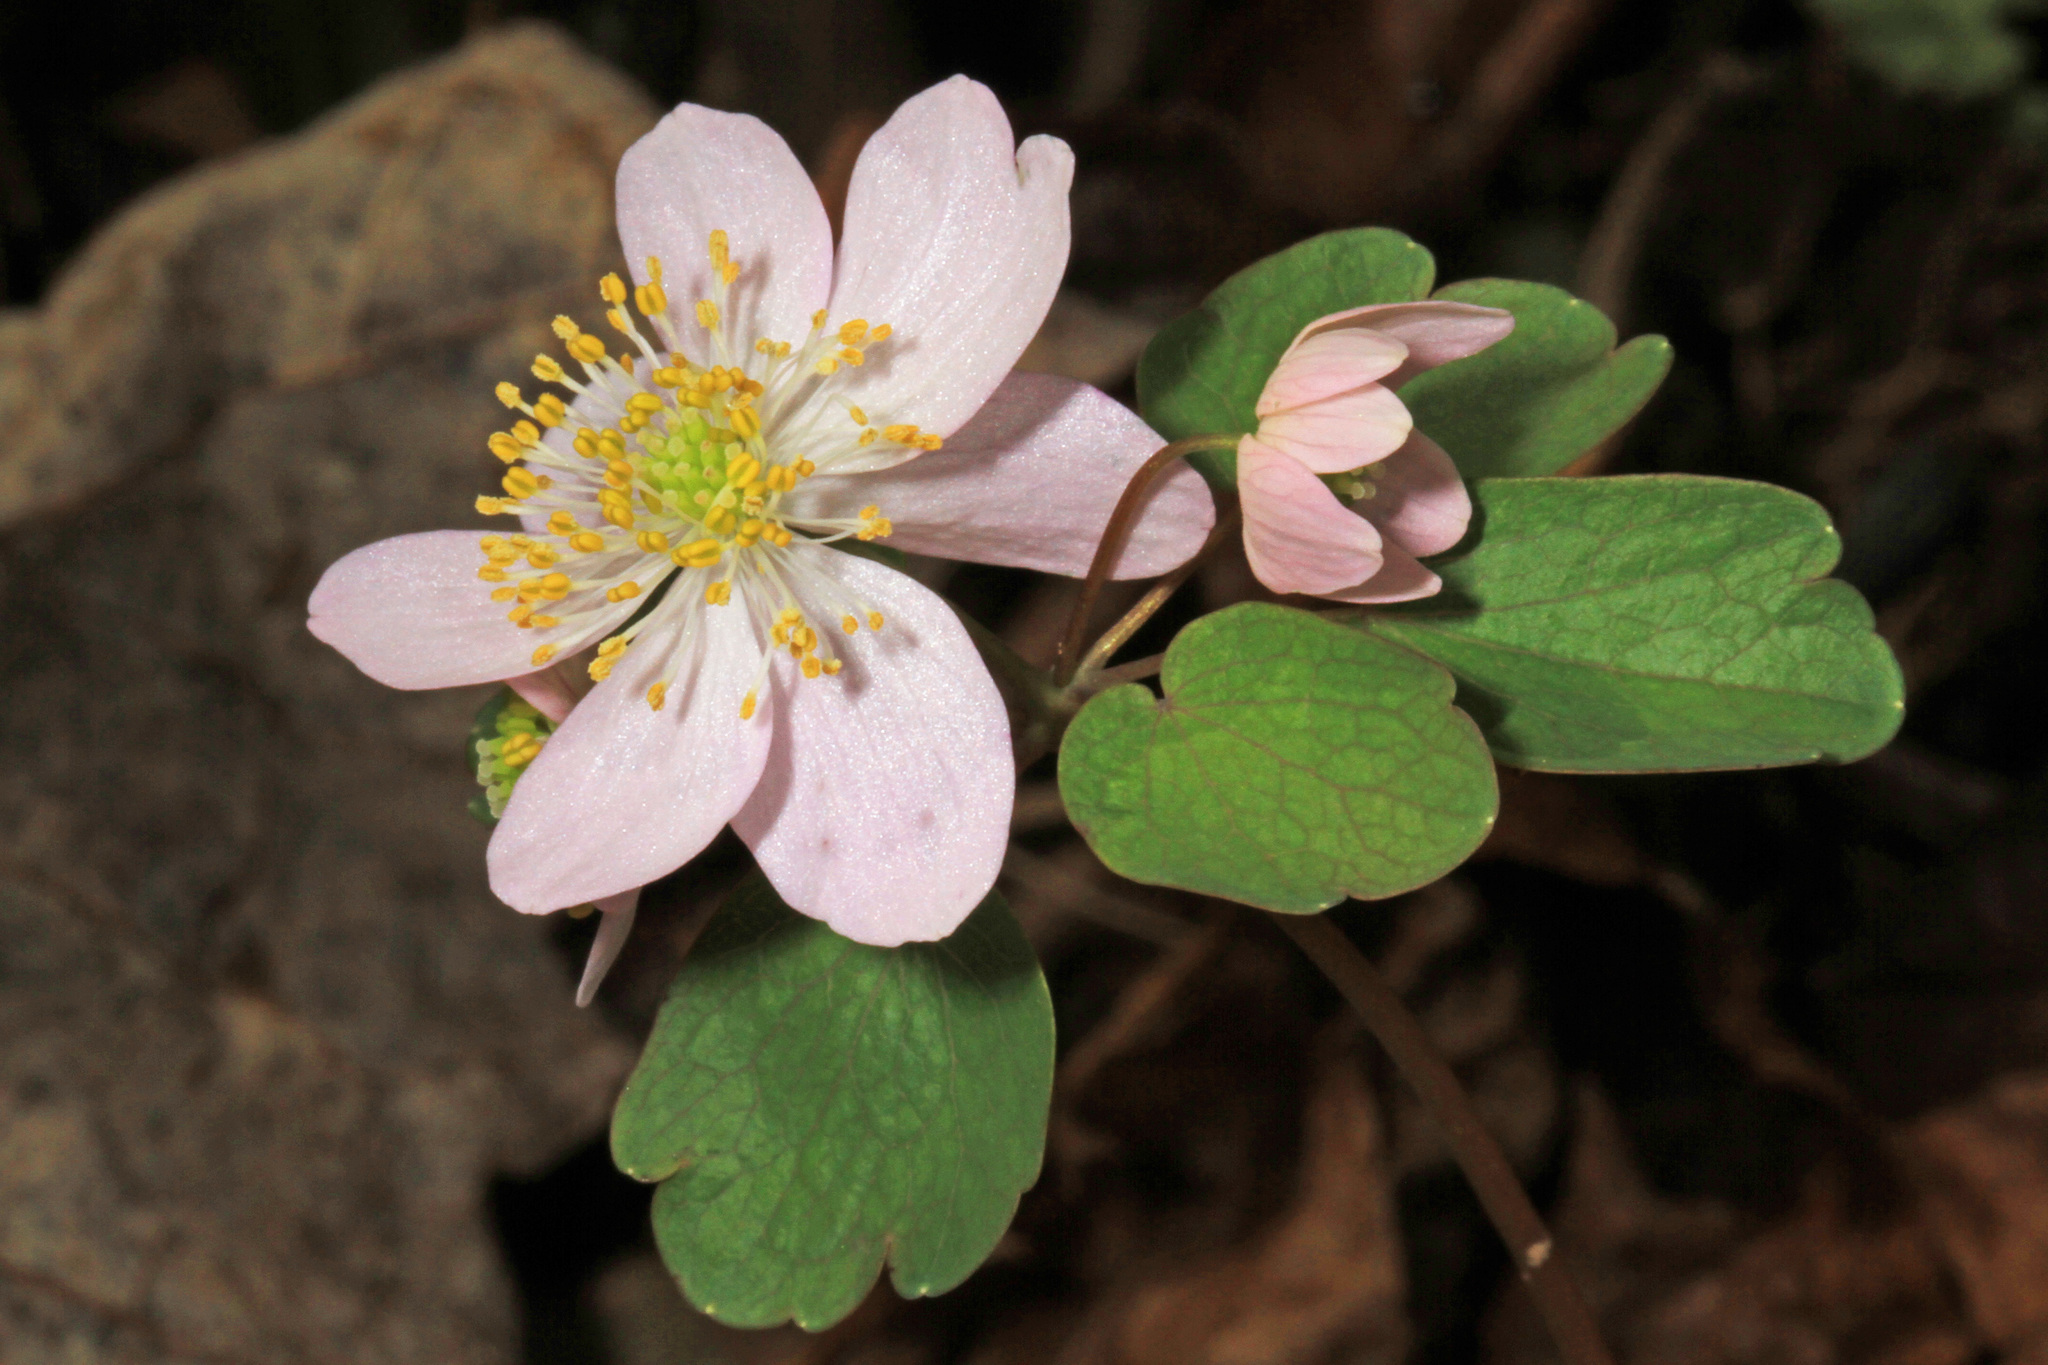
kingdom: Plantae
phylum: Tracheophyta
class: Magnoliopsida
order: Ranunculales
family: Ranunculaceae
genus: Thalictrum
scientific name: Thalictrum thalictroides
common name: Rue-anemone
